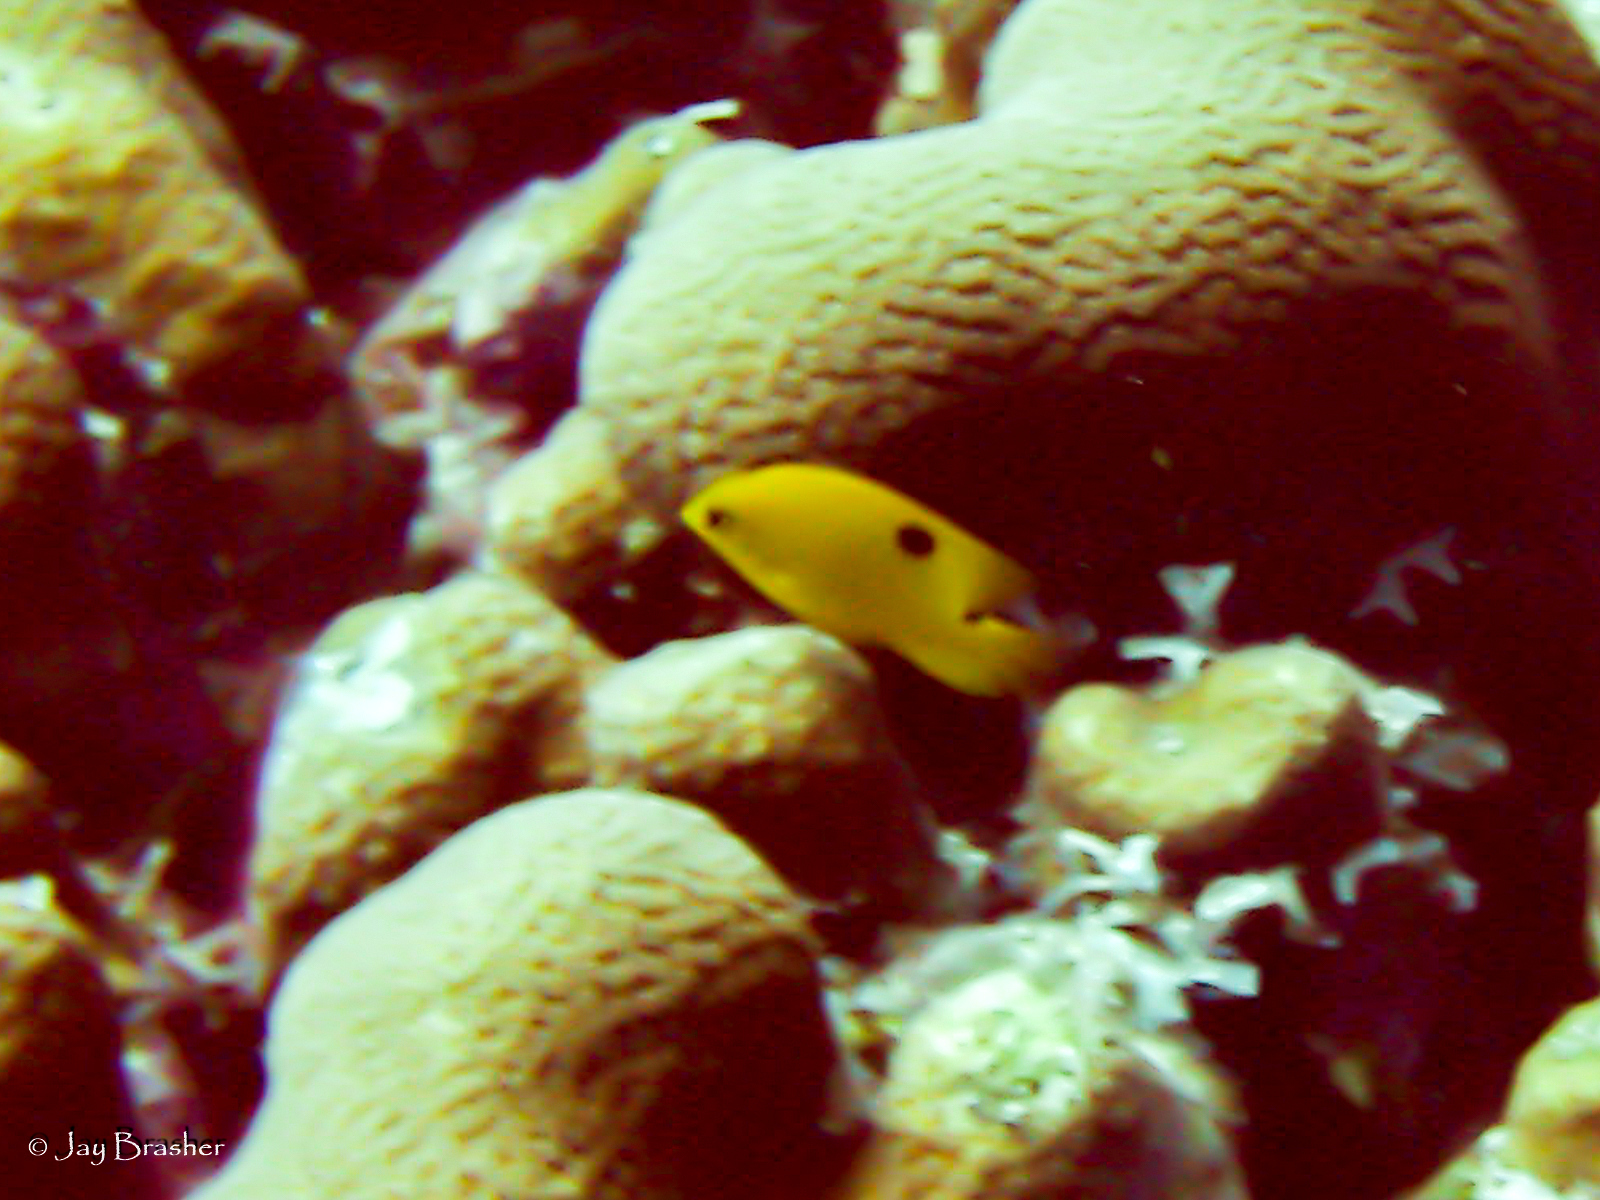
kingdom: Animalia
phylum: Chordata
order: Perciformes
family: Pomacentridae
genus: Stegastes
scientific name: Stegastes planifrons
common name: Threespot damselfish
